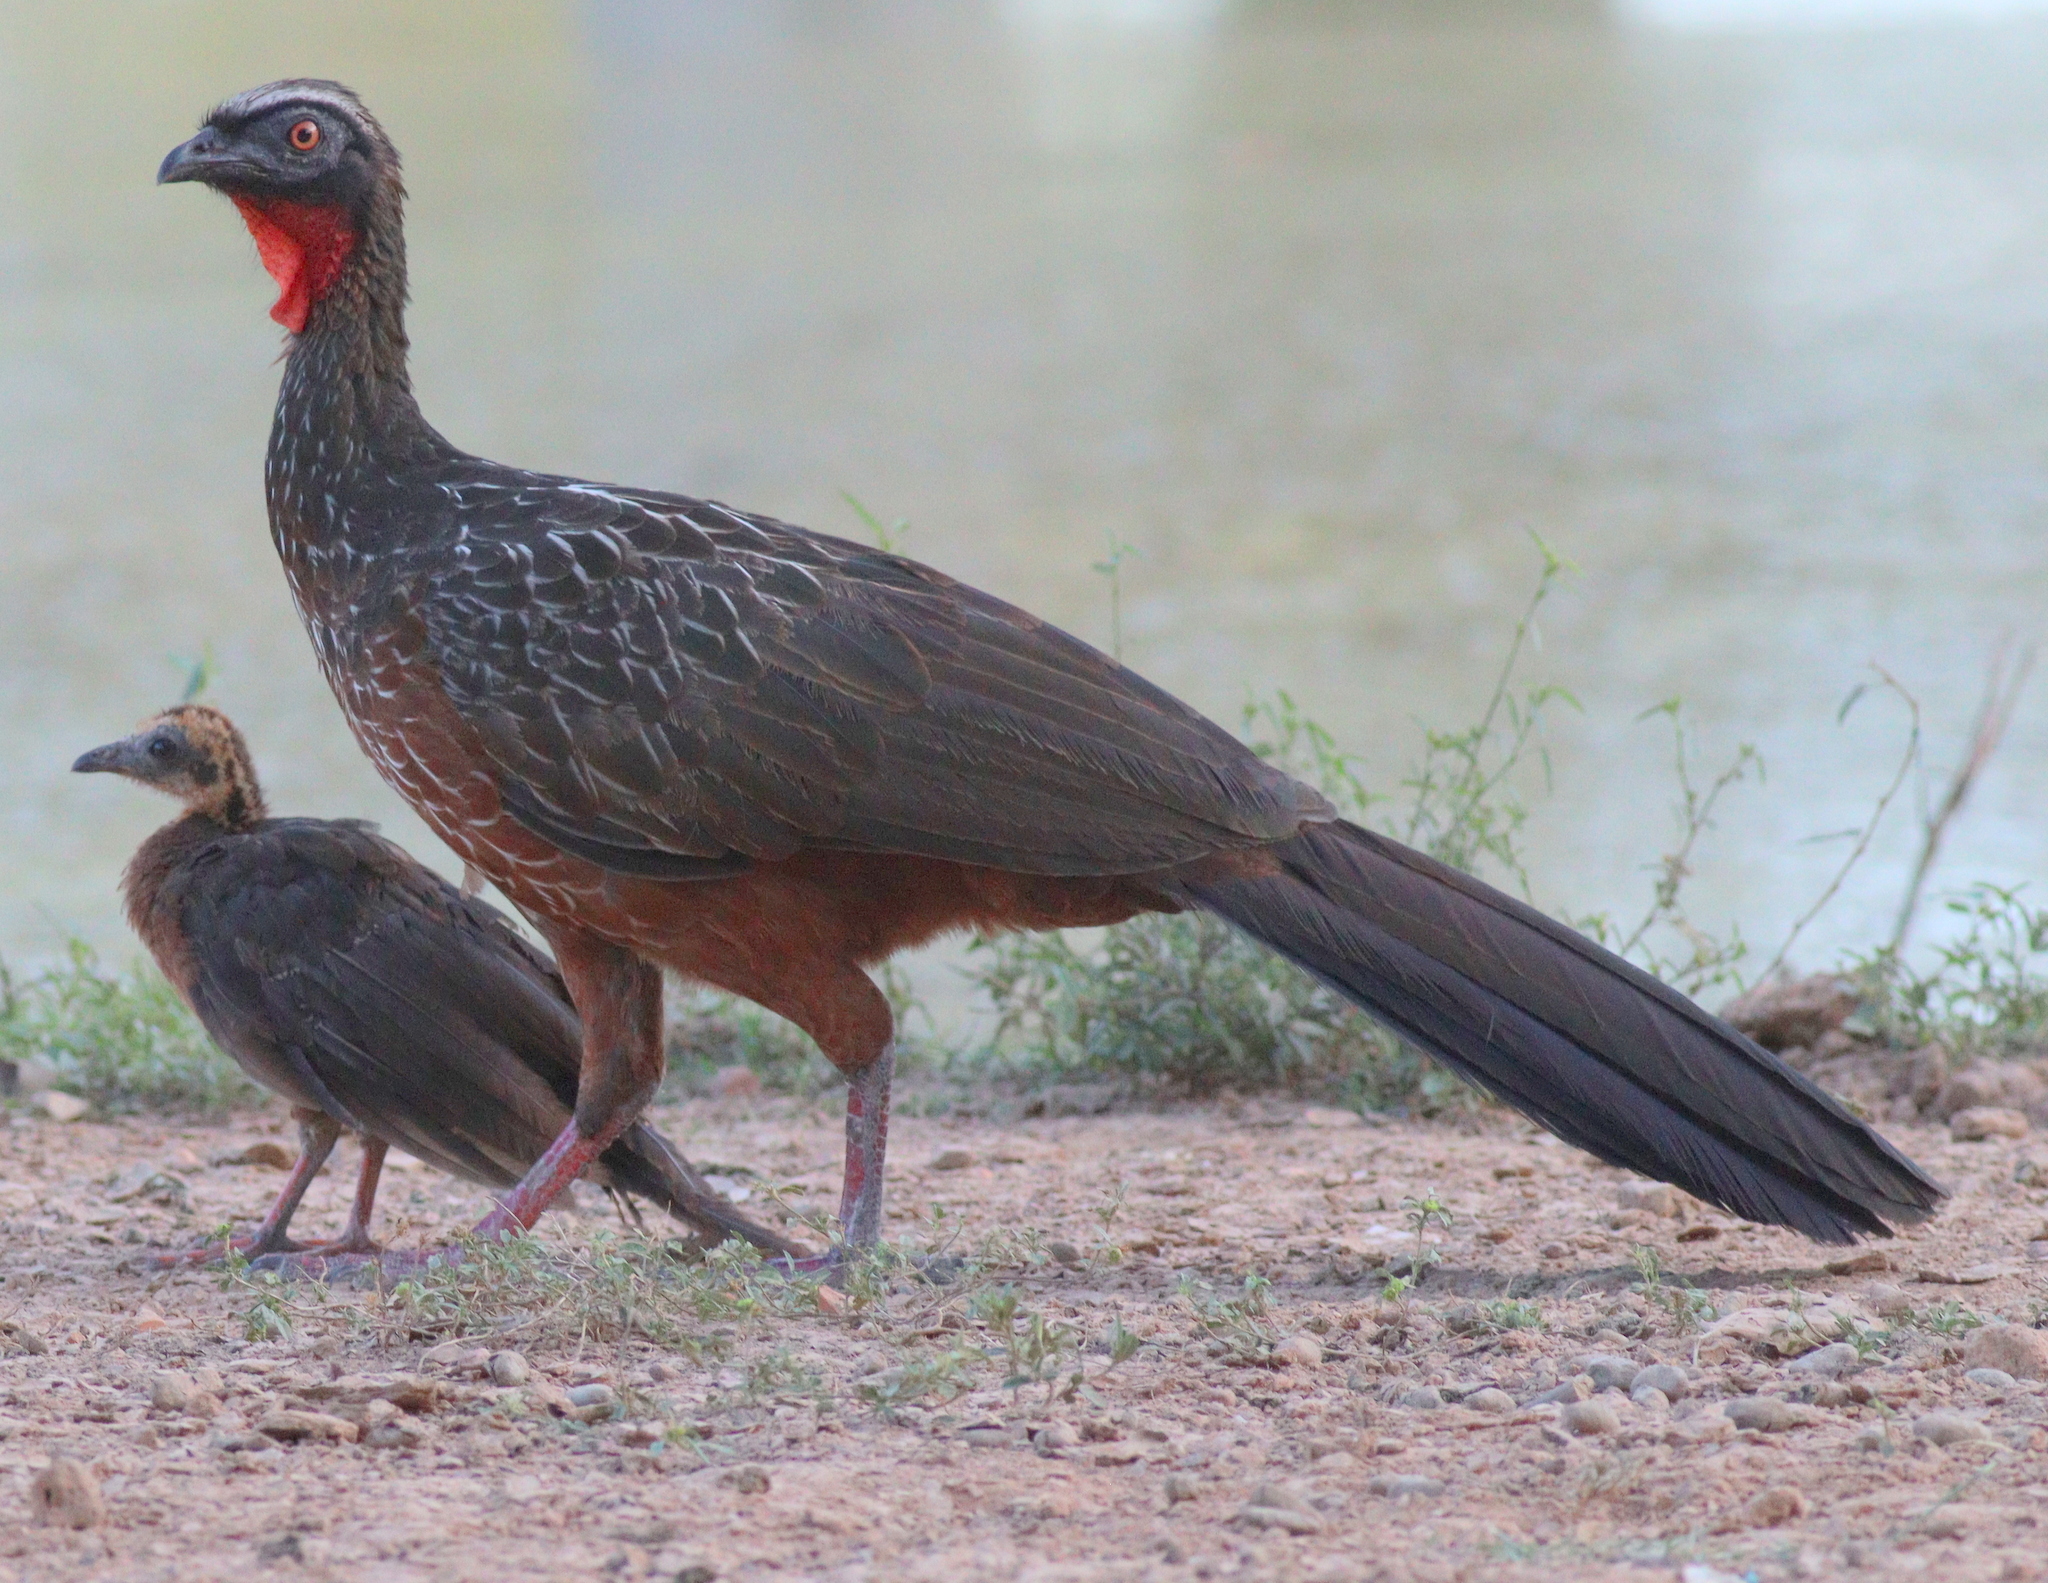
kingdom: Animalia
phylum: Chordata
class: Aves
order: Galliformes
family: Cracidae
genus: Penelope
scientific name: Penelope ochrogaster
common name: Chestnut-bellied guan
